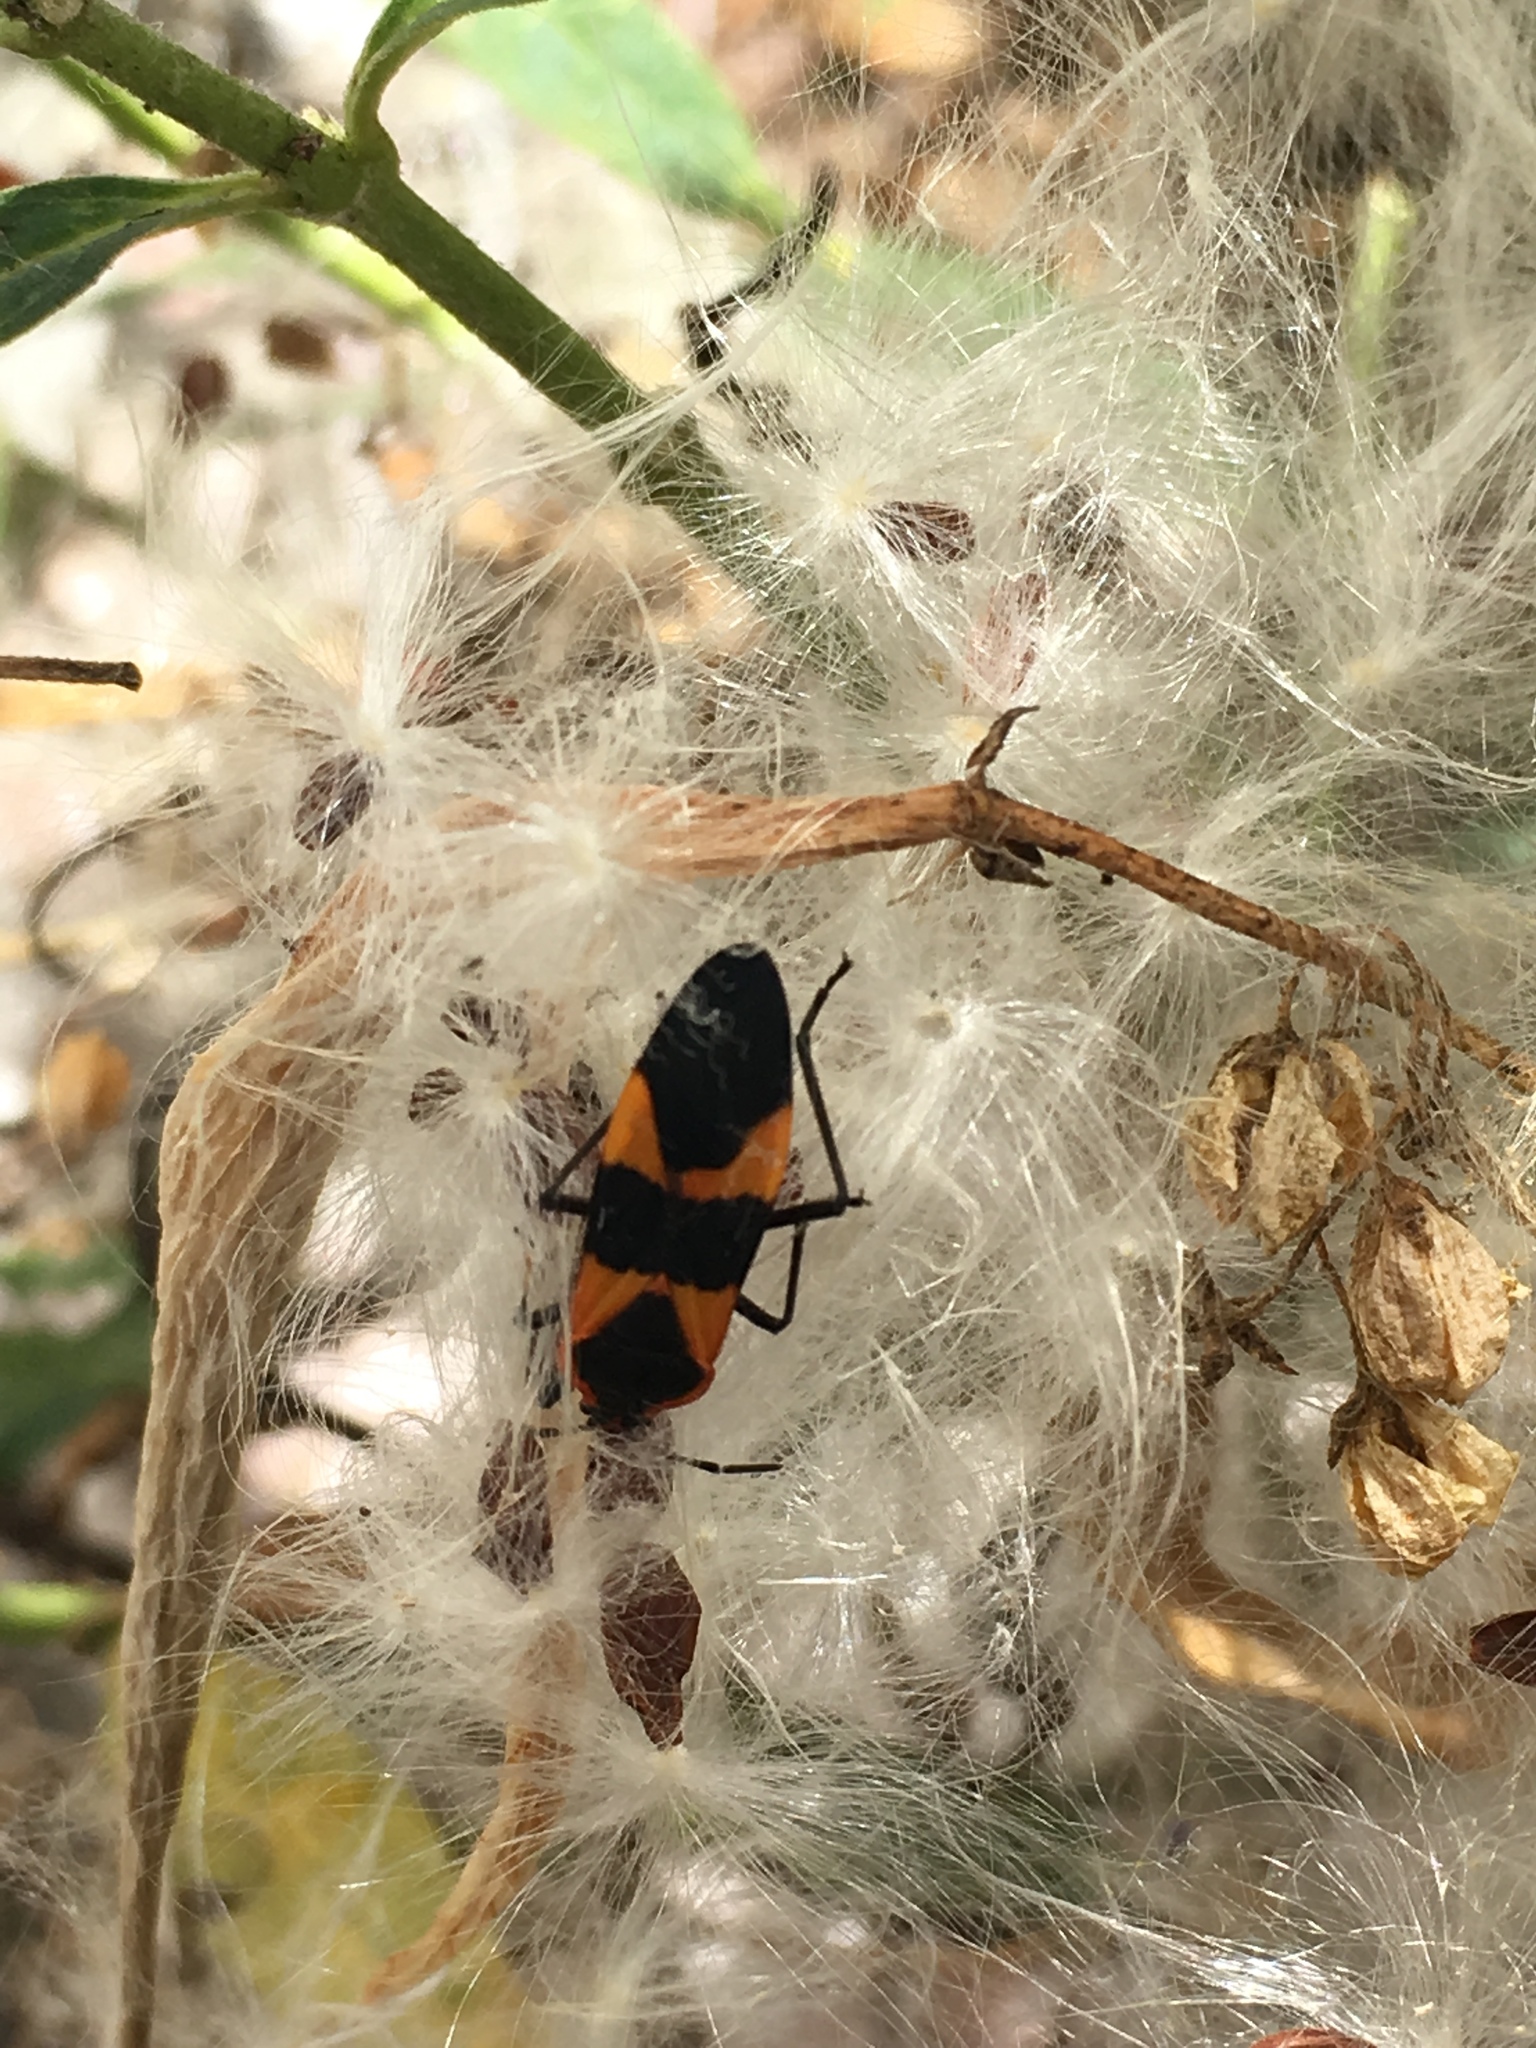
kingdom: Animalia
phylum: Arthropoda
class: Insecta
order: Hemiptera
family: Lygaeidae
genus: Oncopeltus
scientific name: Oncopeltus fasciatus
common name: Large milkweed bug
